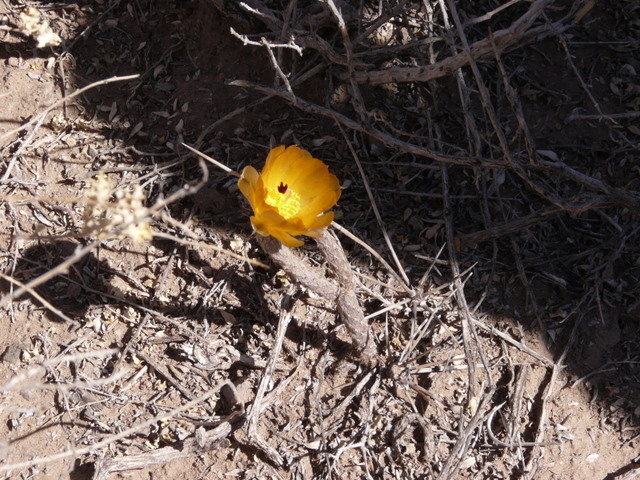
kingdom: Plantae
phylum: Tracheophyta
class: Magnoliopsida
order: Caryophyllales
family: Cactaceae
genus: Pterocactus
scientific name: Pterocactus tuberosus
